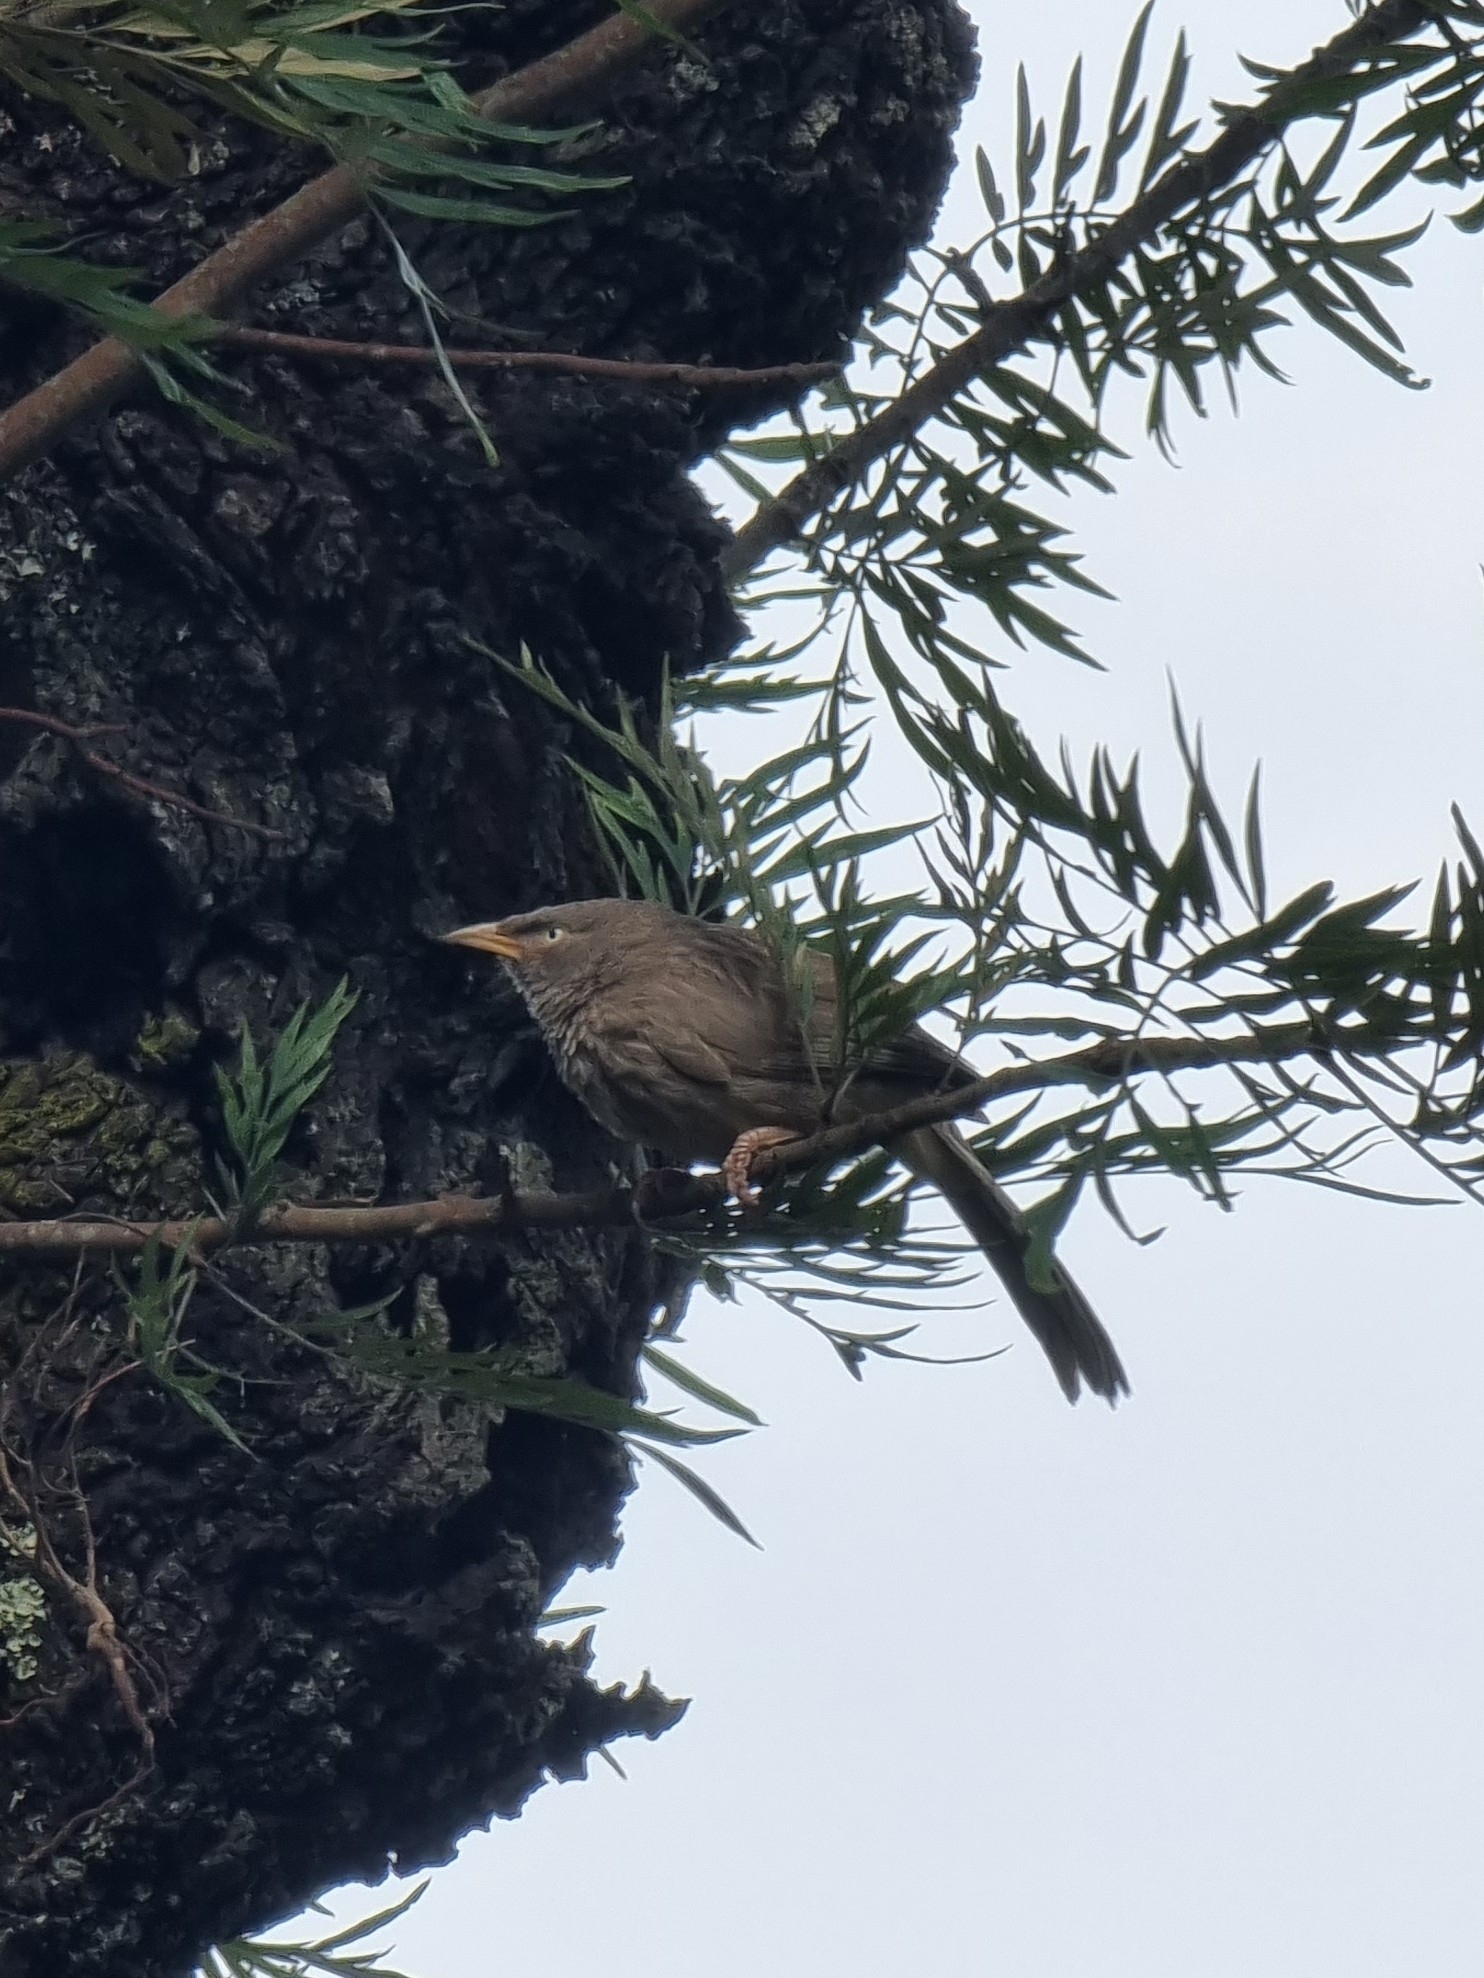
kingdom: Animalia
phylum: Chordata
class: Aves
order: Passeriformes
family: Leiothrichidae
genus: Turdoides
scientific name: Turdoides striata
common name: Jungle babbler
